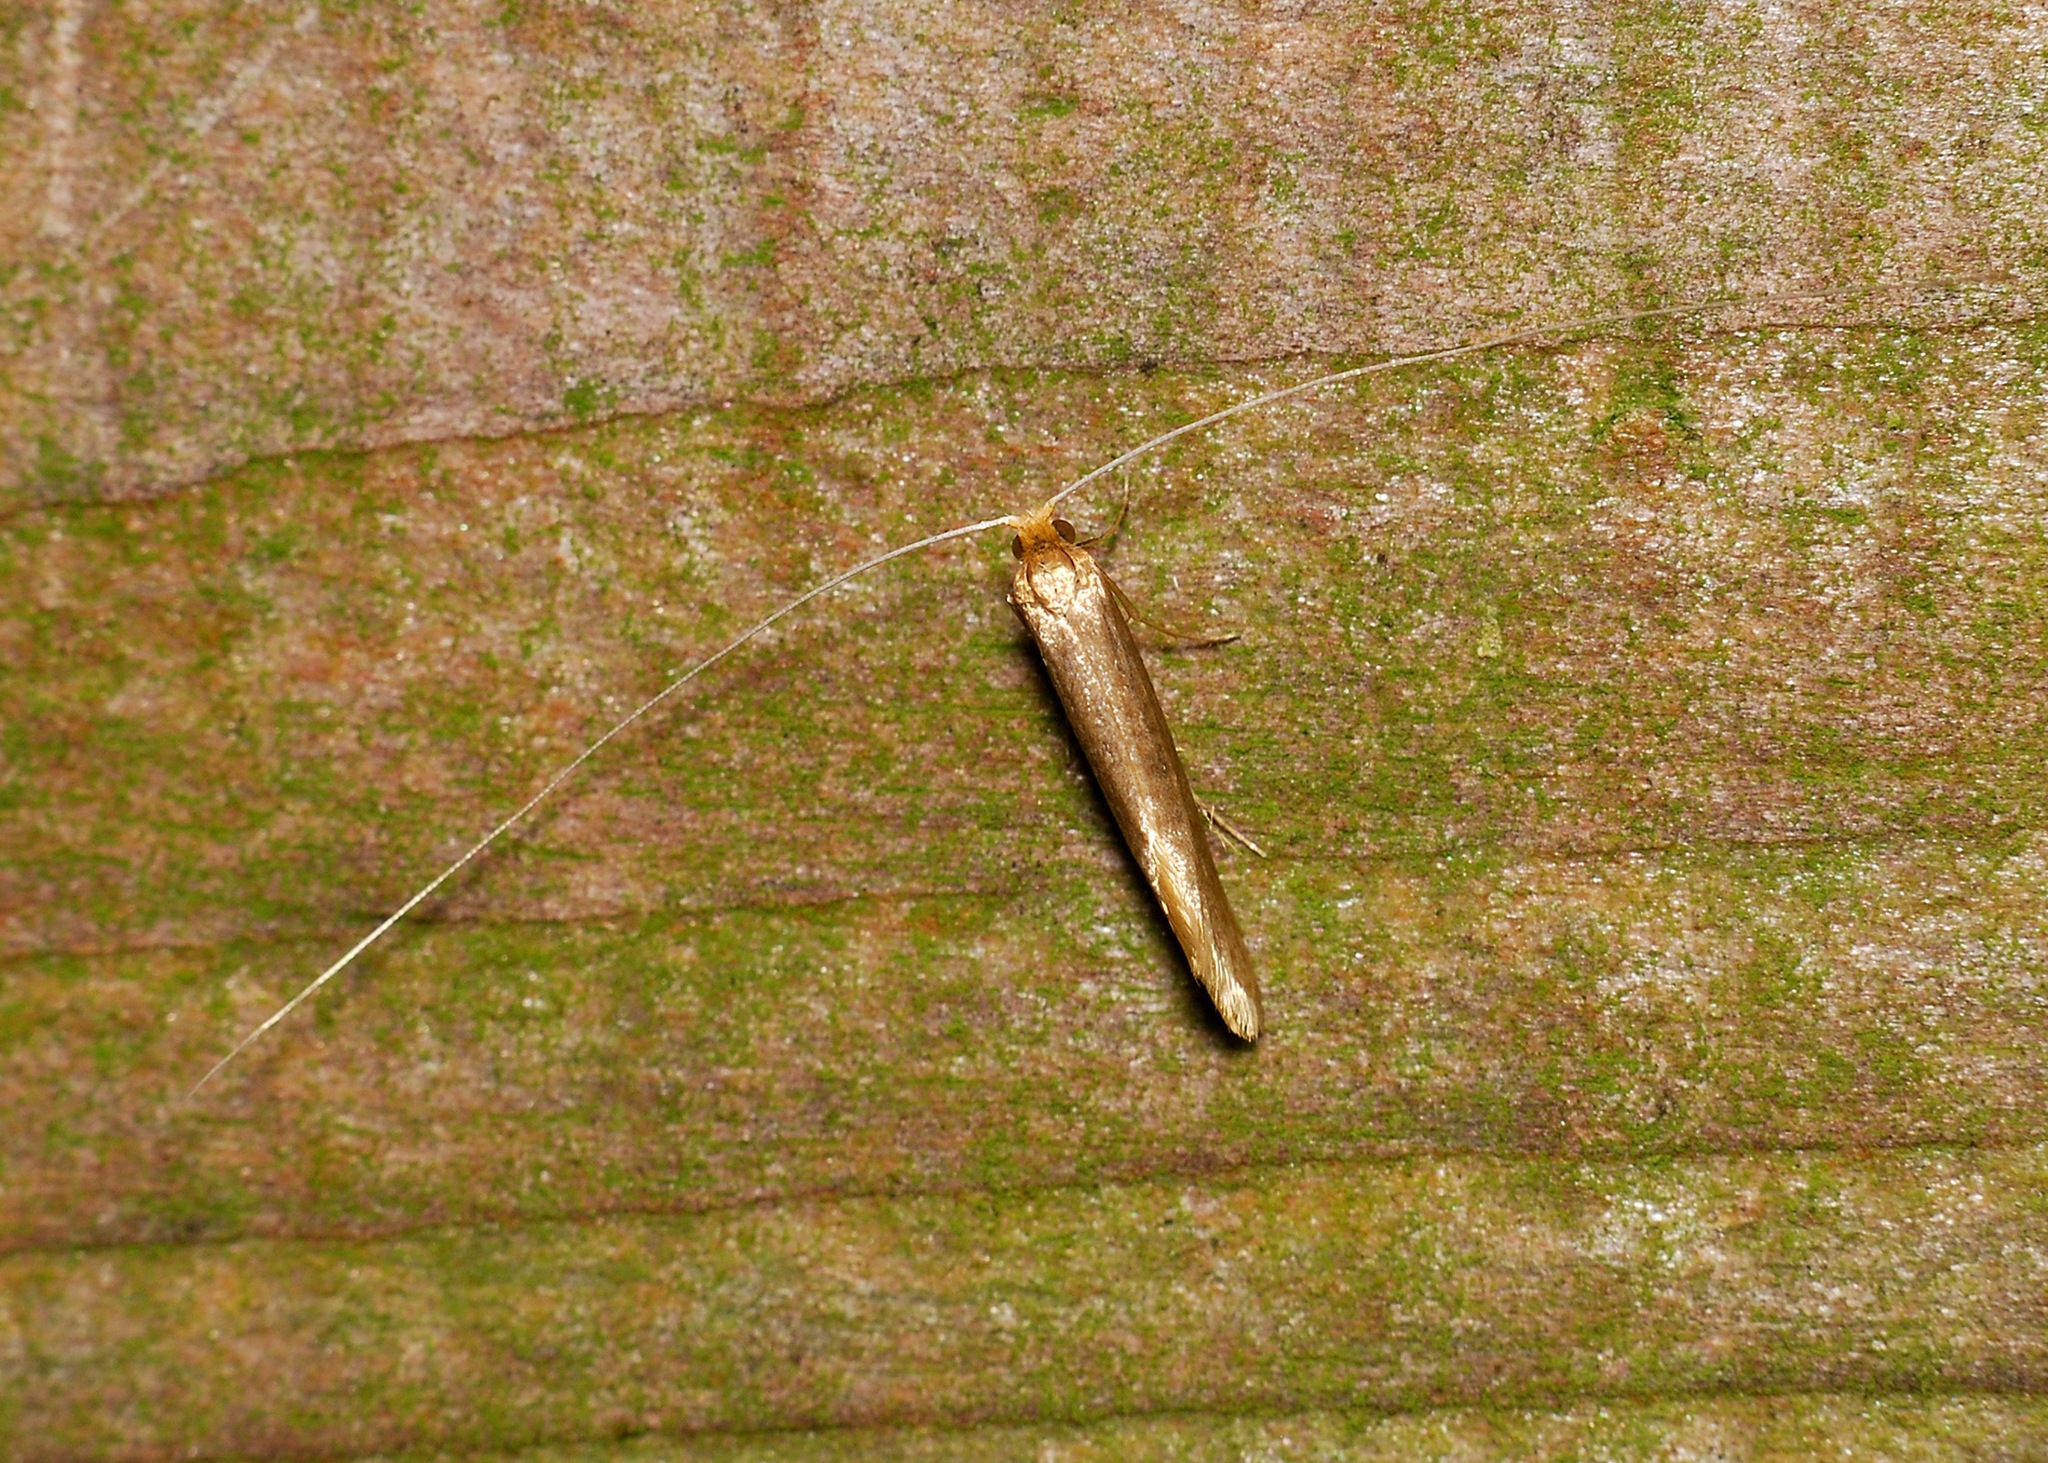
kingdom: Animalia
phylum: Arthropoda
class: Insecta
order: Lepidoptera
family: Adelidae
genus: Nematopogon
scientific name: Nematopogon swammerdamella
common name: Large long-horn
